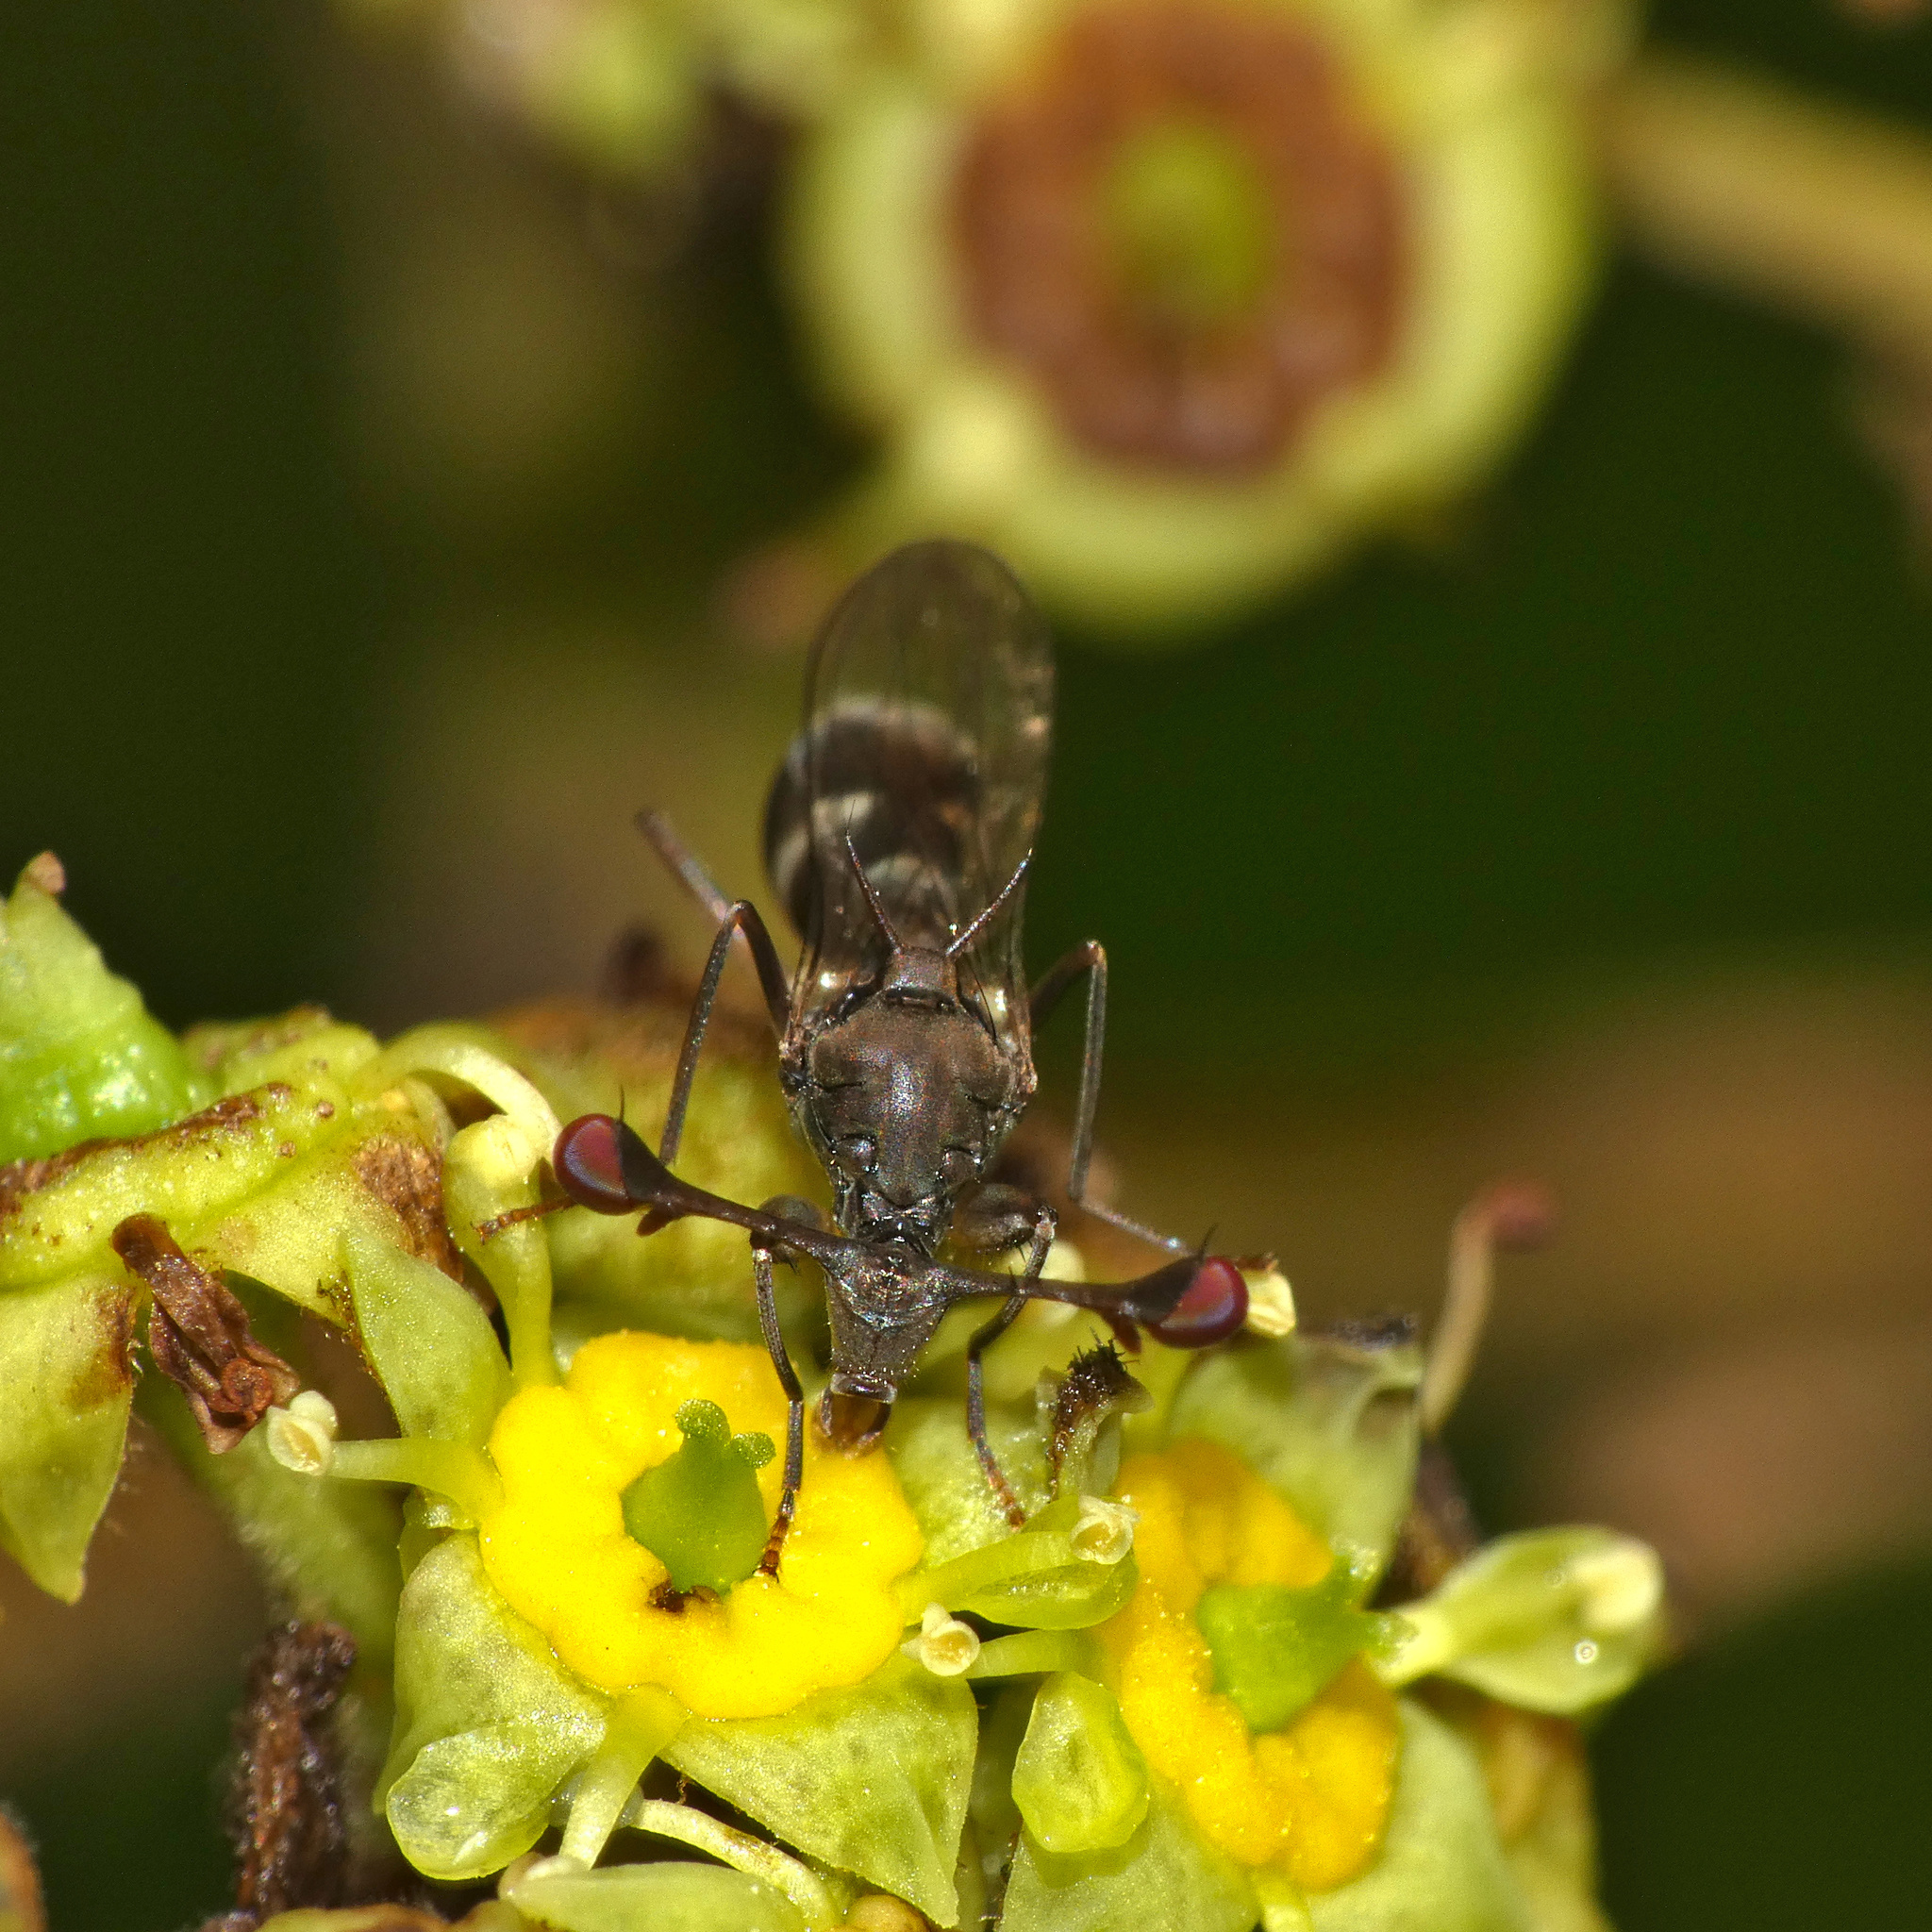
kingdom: Animalia
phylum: Arthropoda
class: Insecta
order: Diptera
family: Diopsidae
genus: Diasemopsis
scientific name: Diasemopsis obstans
